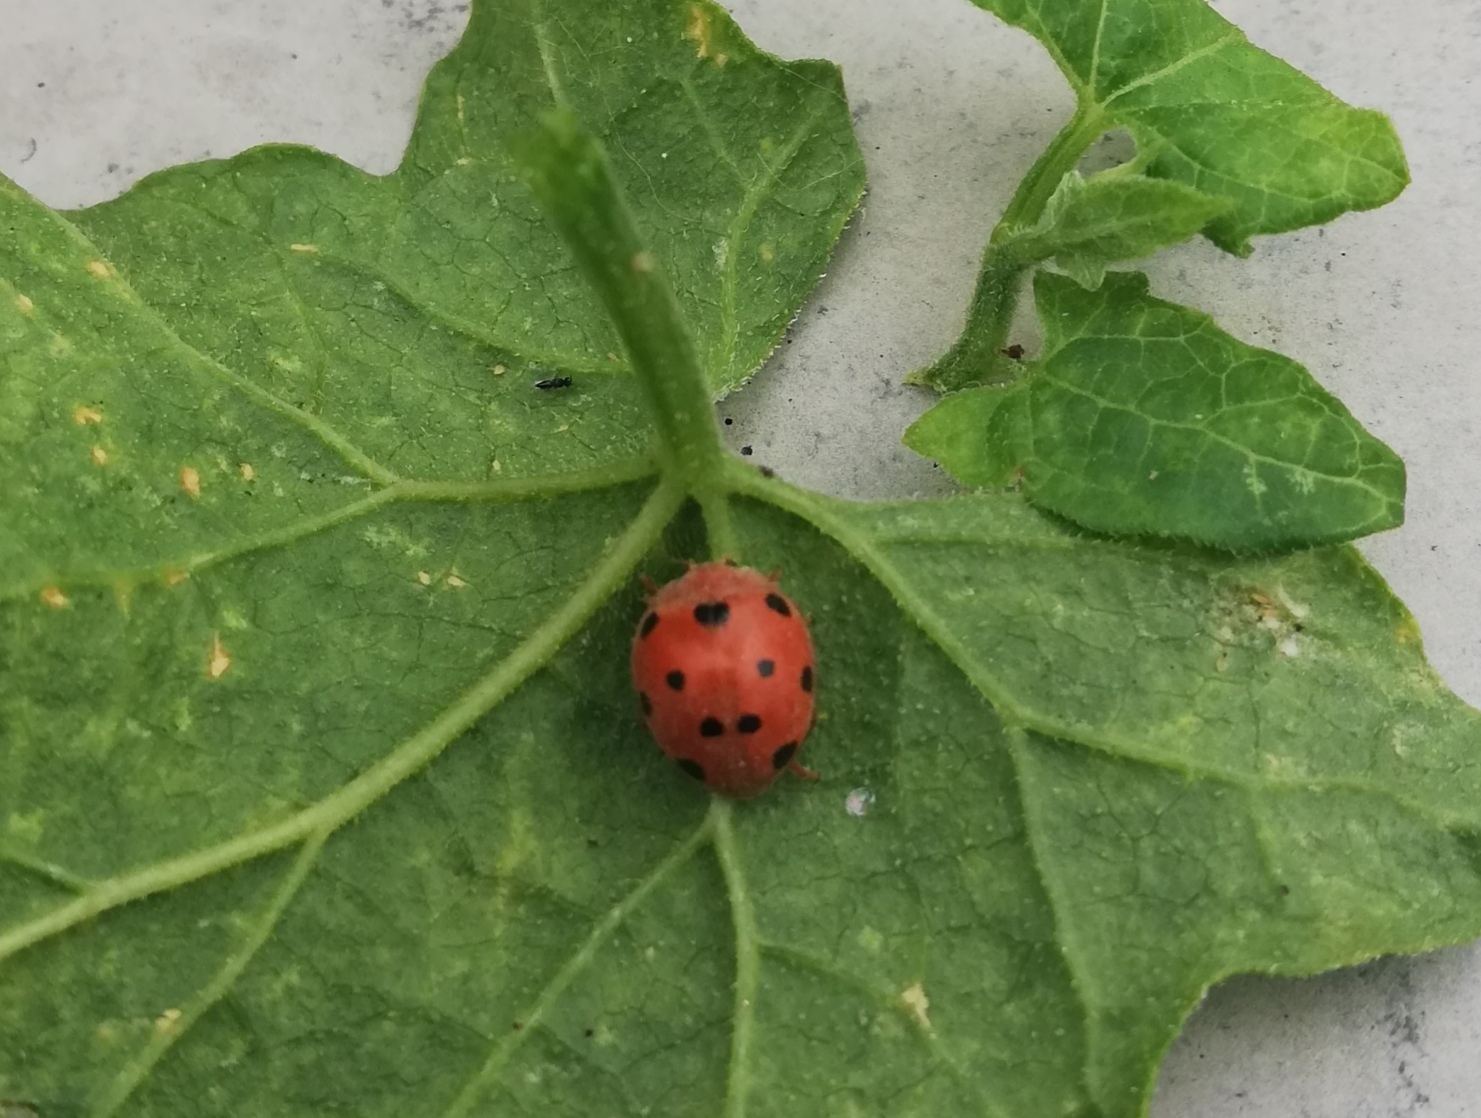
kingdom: Animalia
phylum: Arthropoda
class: Insecta
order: Coleoptera
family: Coccinellidae
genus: Henosepilachna
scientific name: Henosepilachna argus
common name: Bryony ladybird
